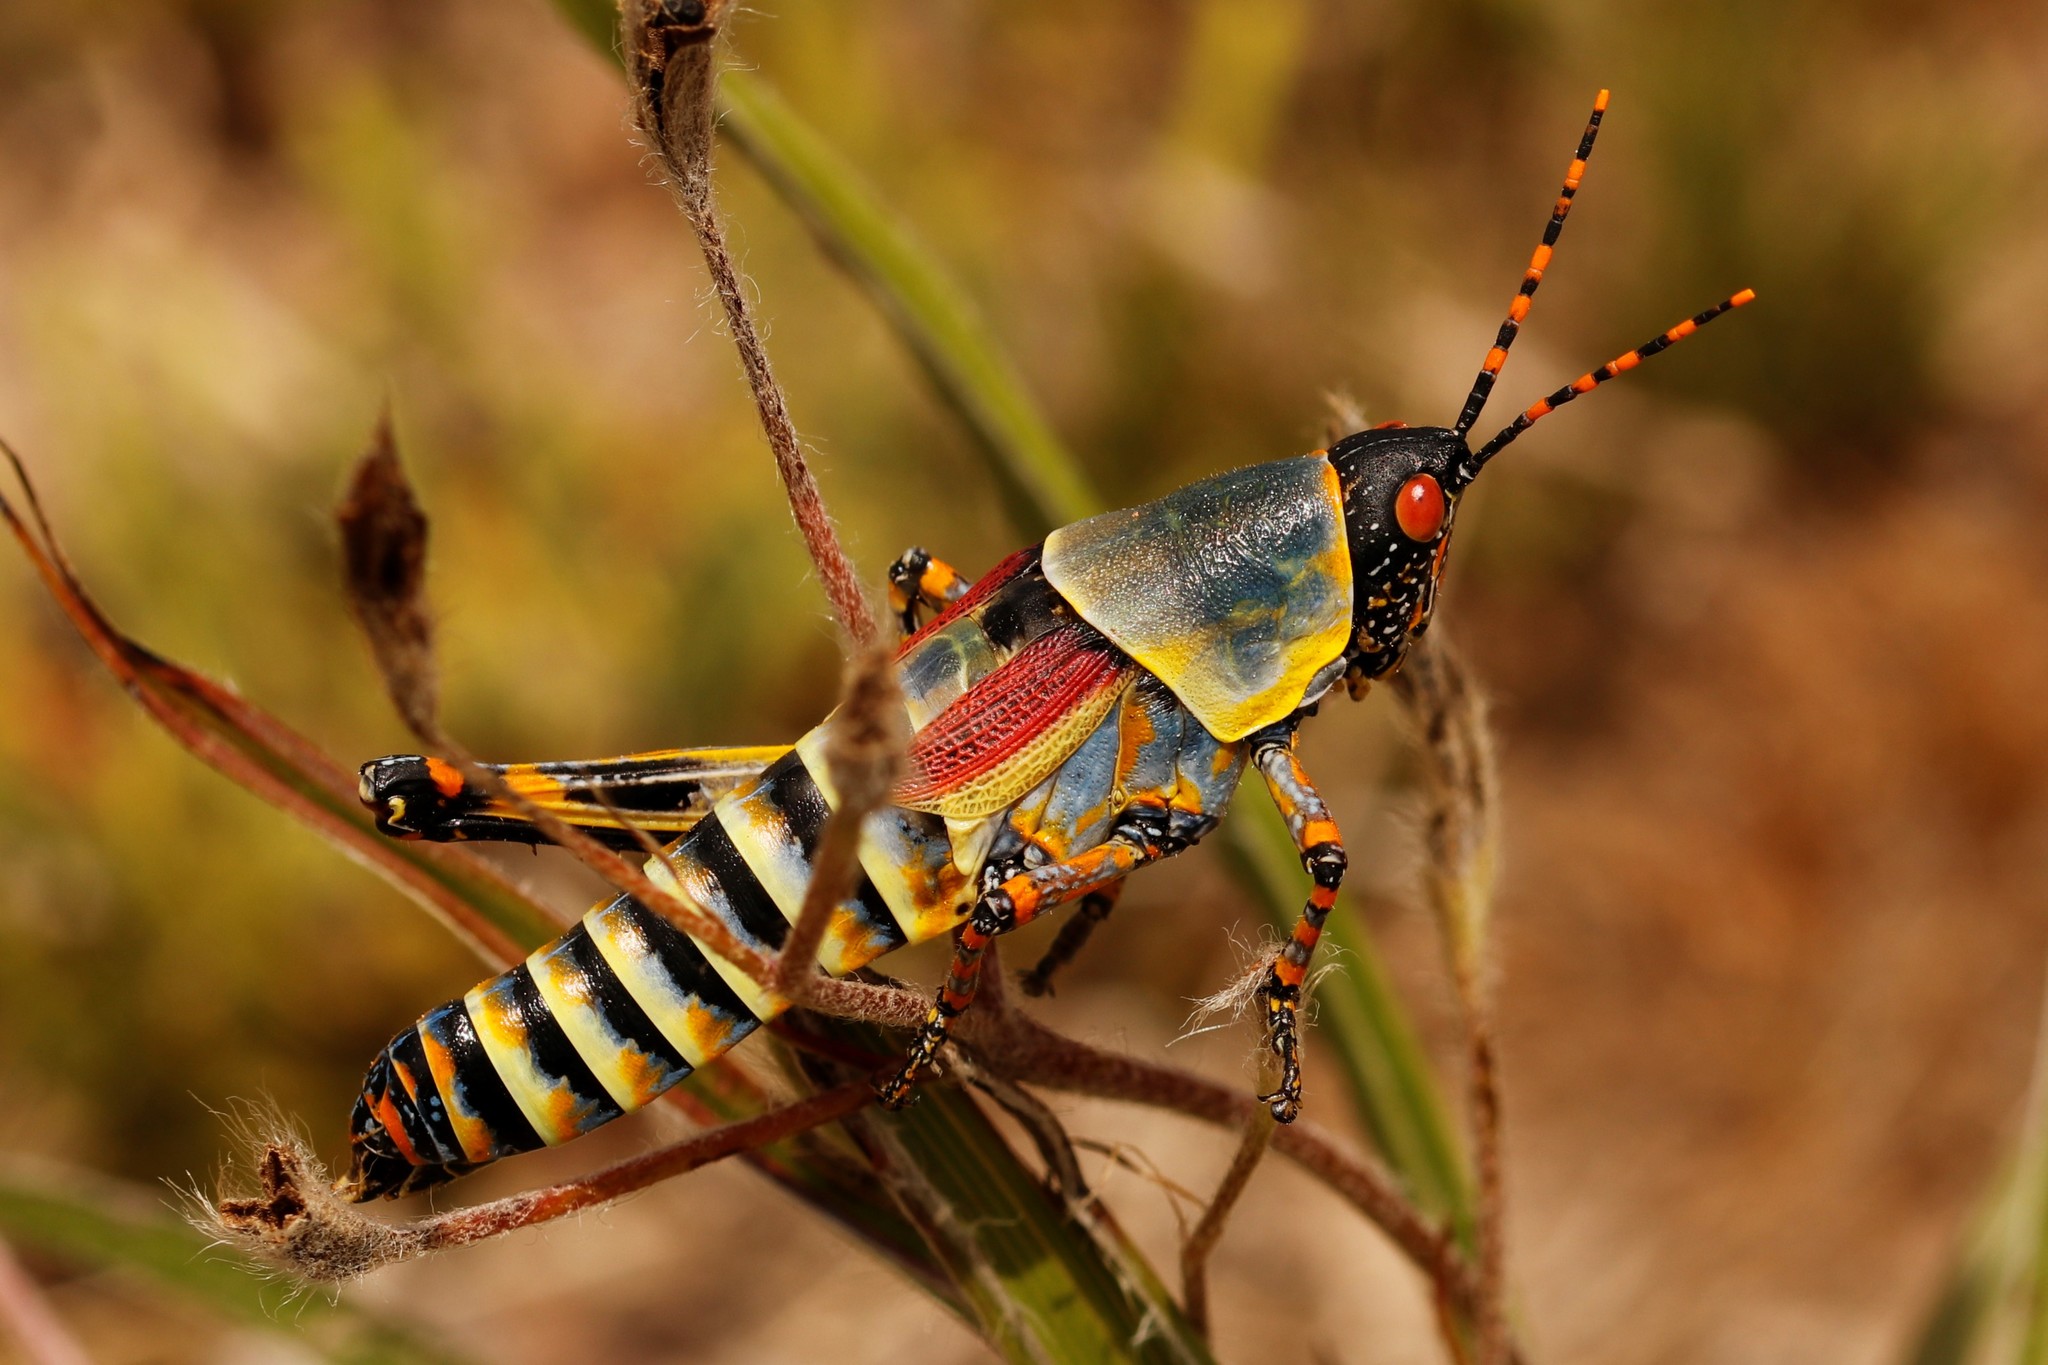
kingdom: Animalia
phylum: Arthropoda
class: Insecta
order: Orthoptera
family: Pyrgomorphidae
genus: Zonocerus
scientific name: Zonocerus elegans
